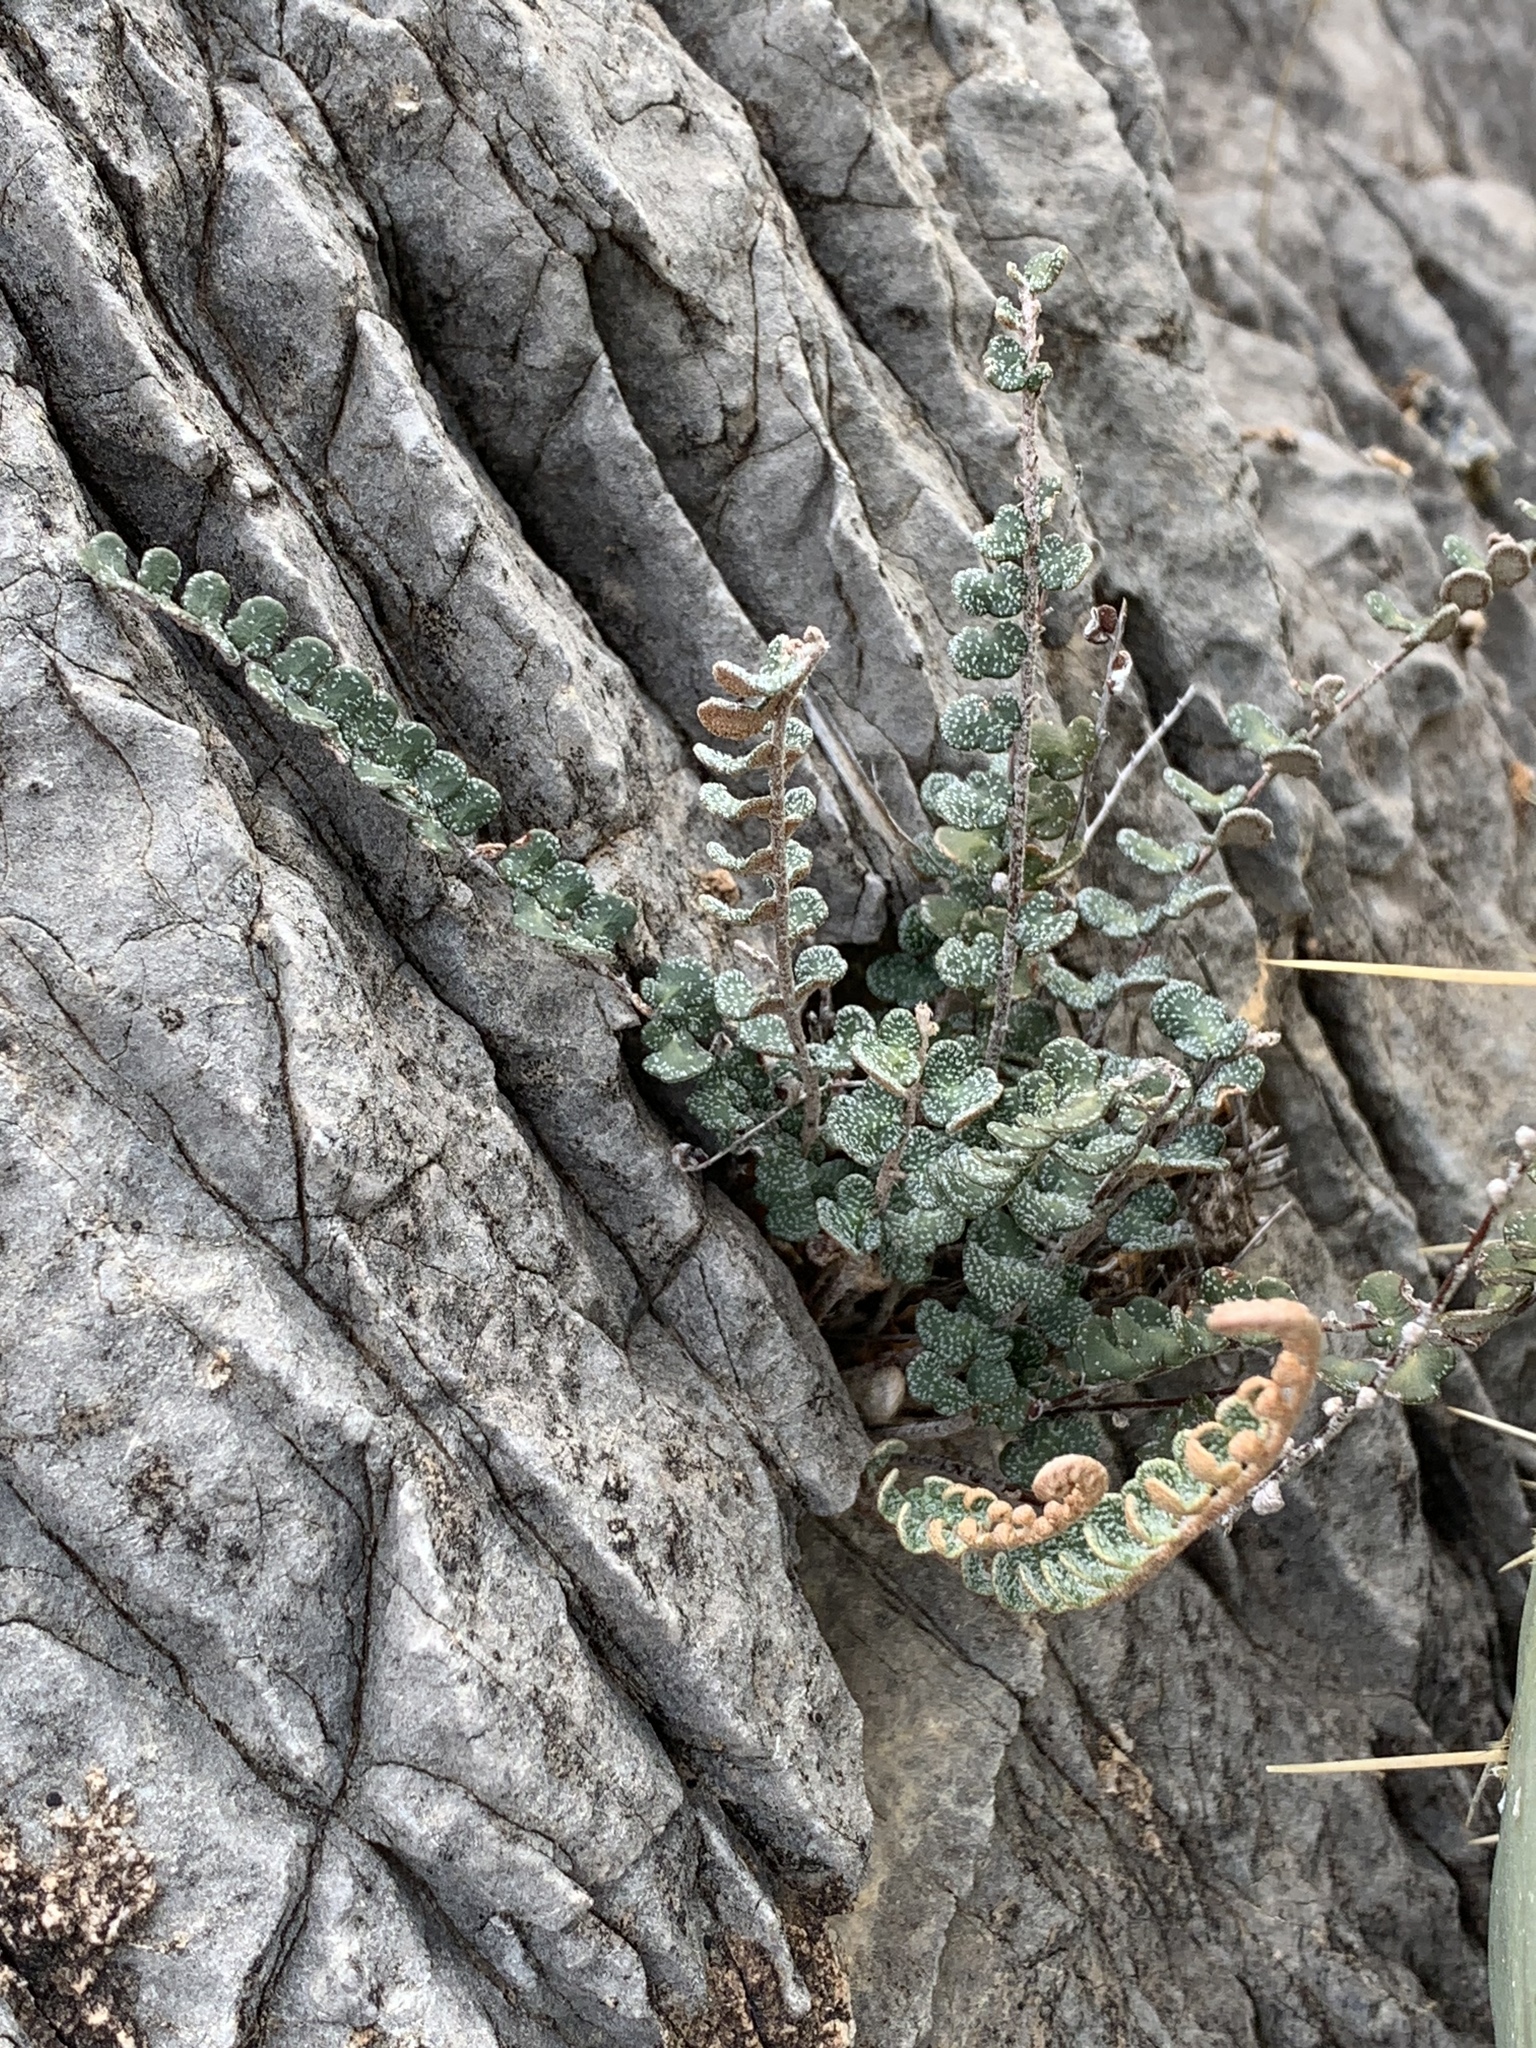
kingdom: Plantae
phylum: Tracheophyta
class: Polypodiopsida
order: Polypodiales
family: Pteridaceae
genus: Astrolepis
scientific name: Astrolepis cochisensis
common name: Scaly cloak fern
